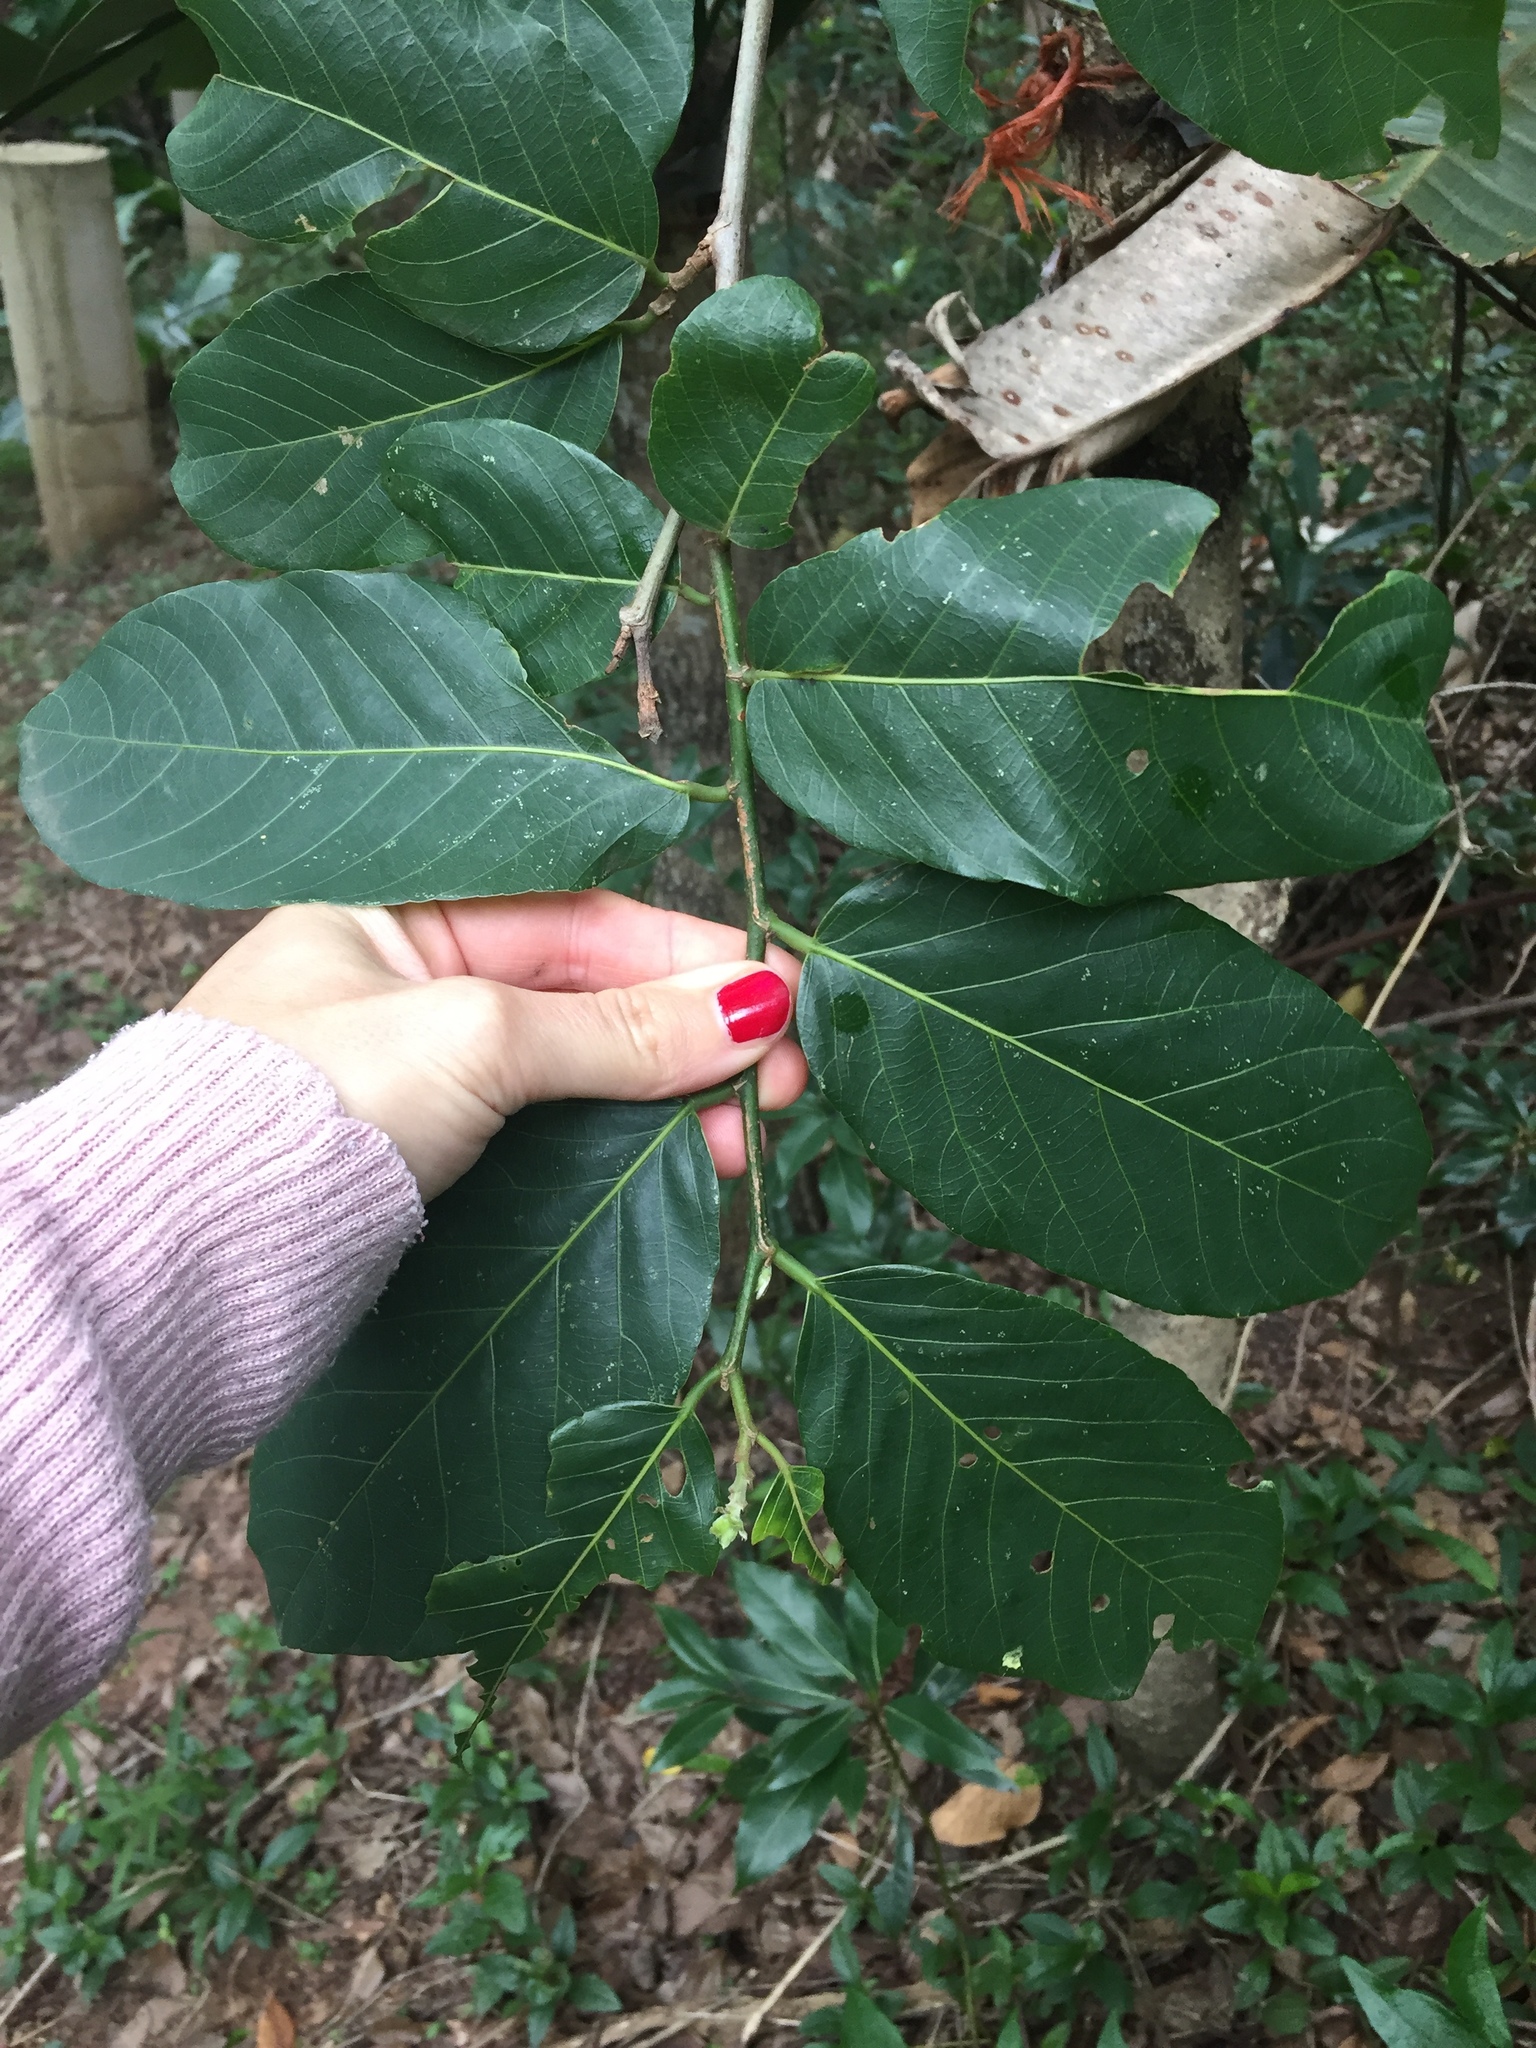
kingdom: Plantae
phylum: Tracheophyta
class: Magnoliopsida
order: Malpighiales
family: Phyllanthaceae
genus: Bridelia
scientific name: Bridelia micrantha
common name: Bridelia
